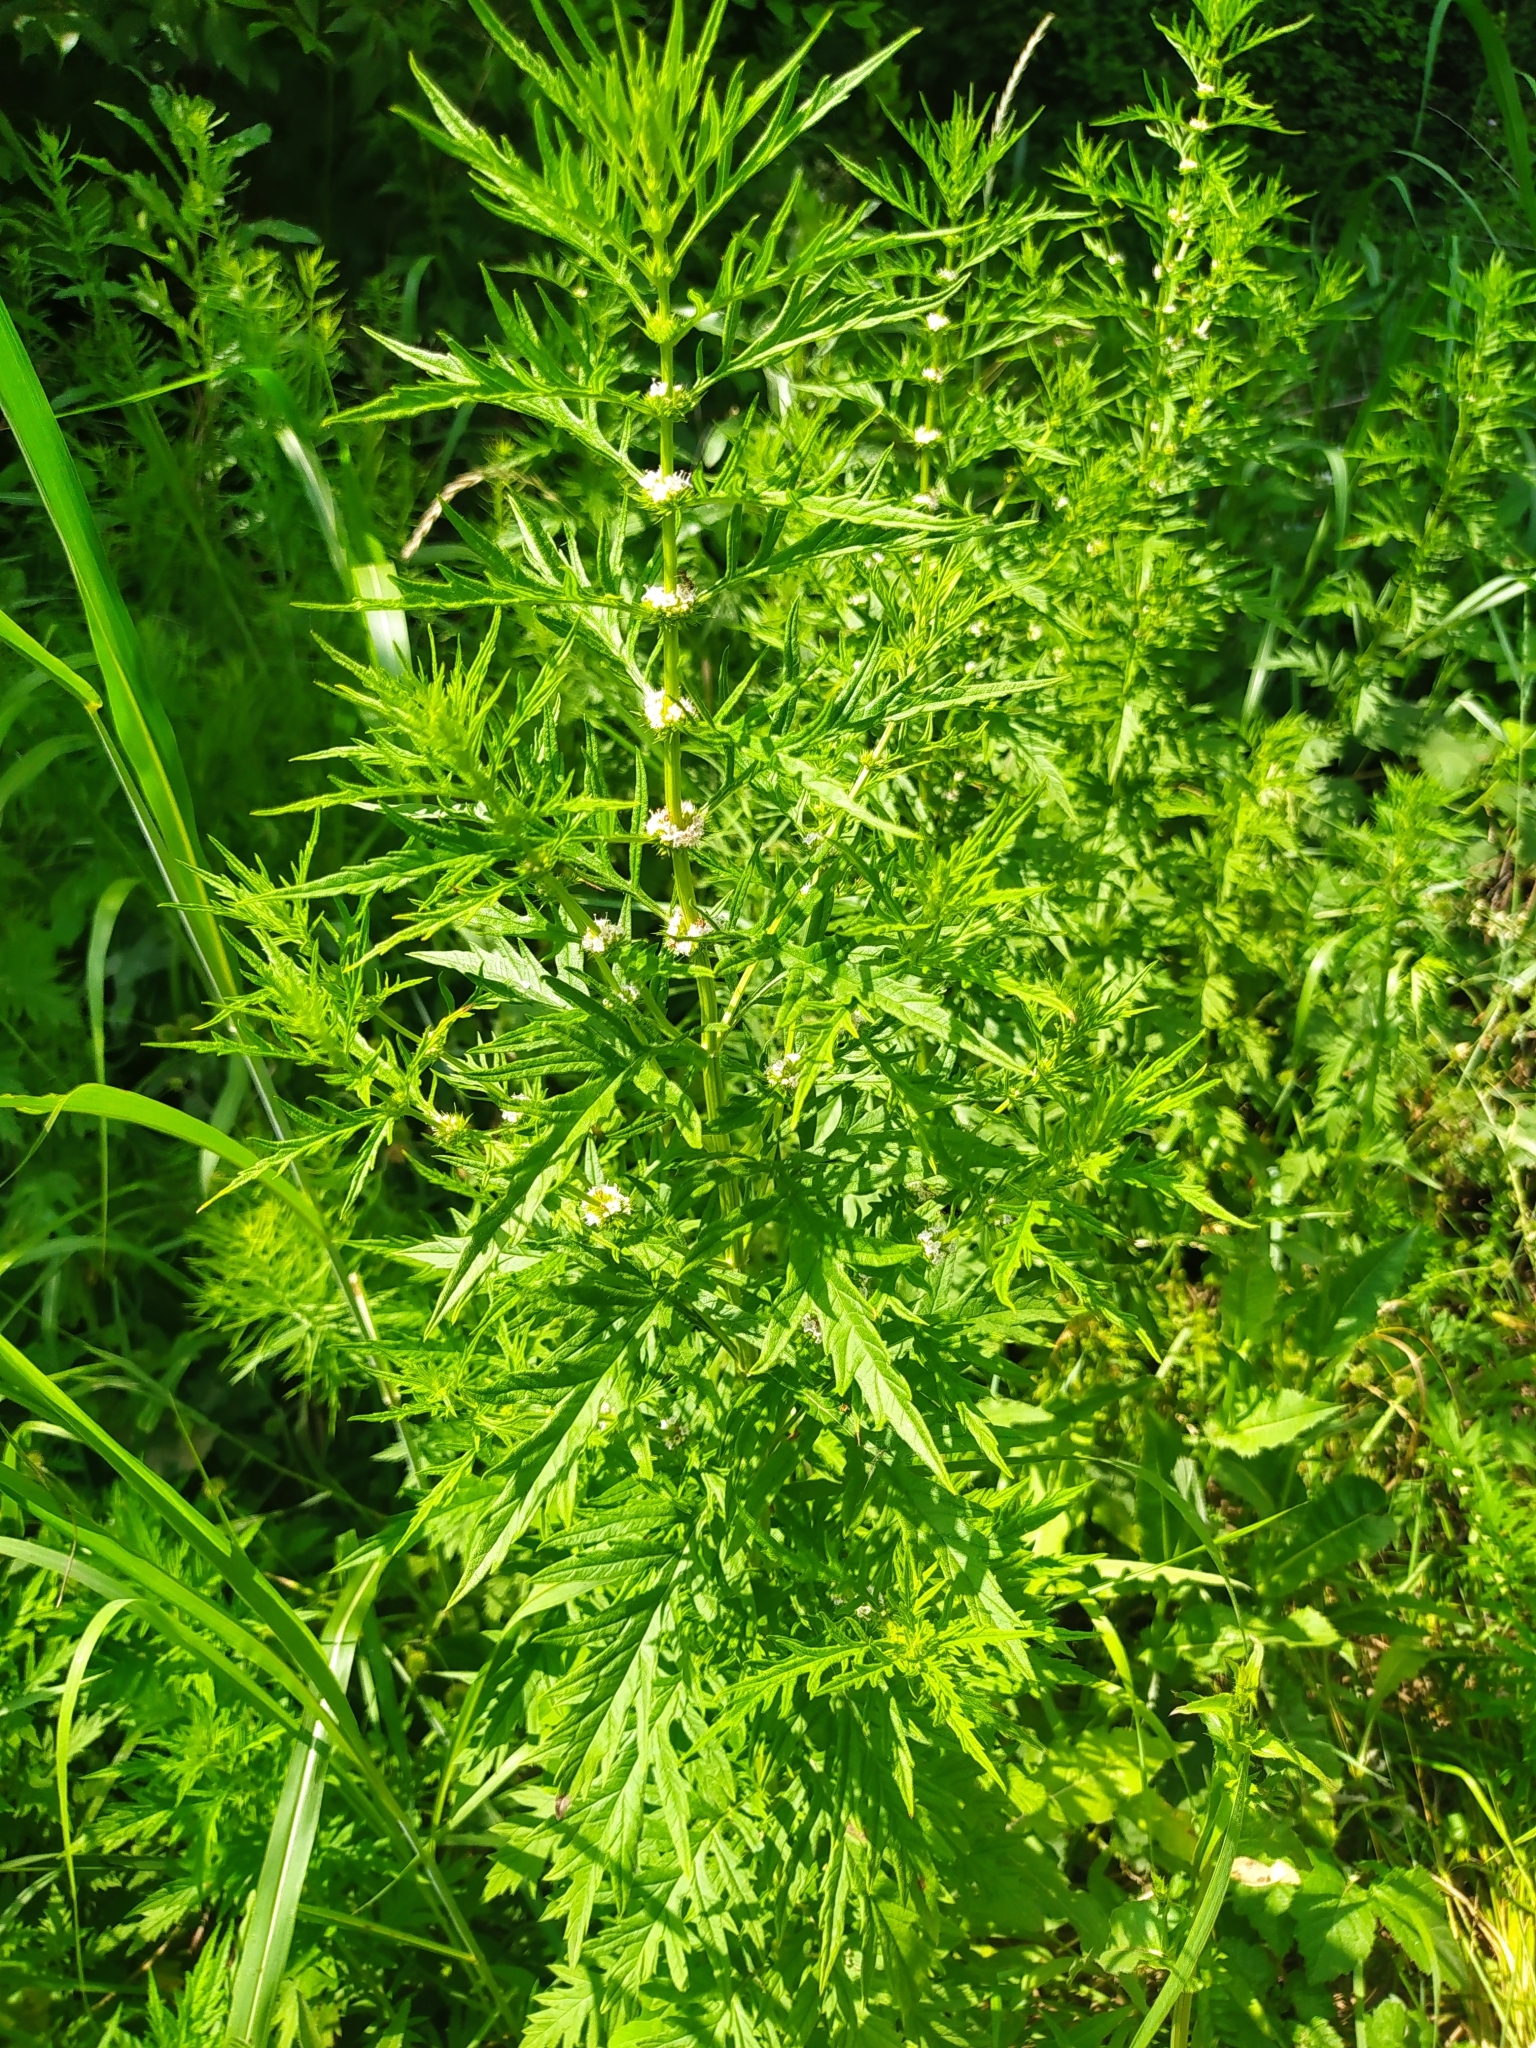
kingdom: Plantae
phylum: Tracheophyta
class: Magnoliopsida
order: Lamiales
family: Lamiaceae
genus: Lycopus
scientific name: Lycopus exaltatus
